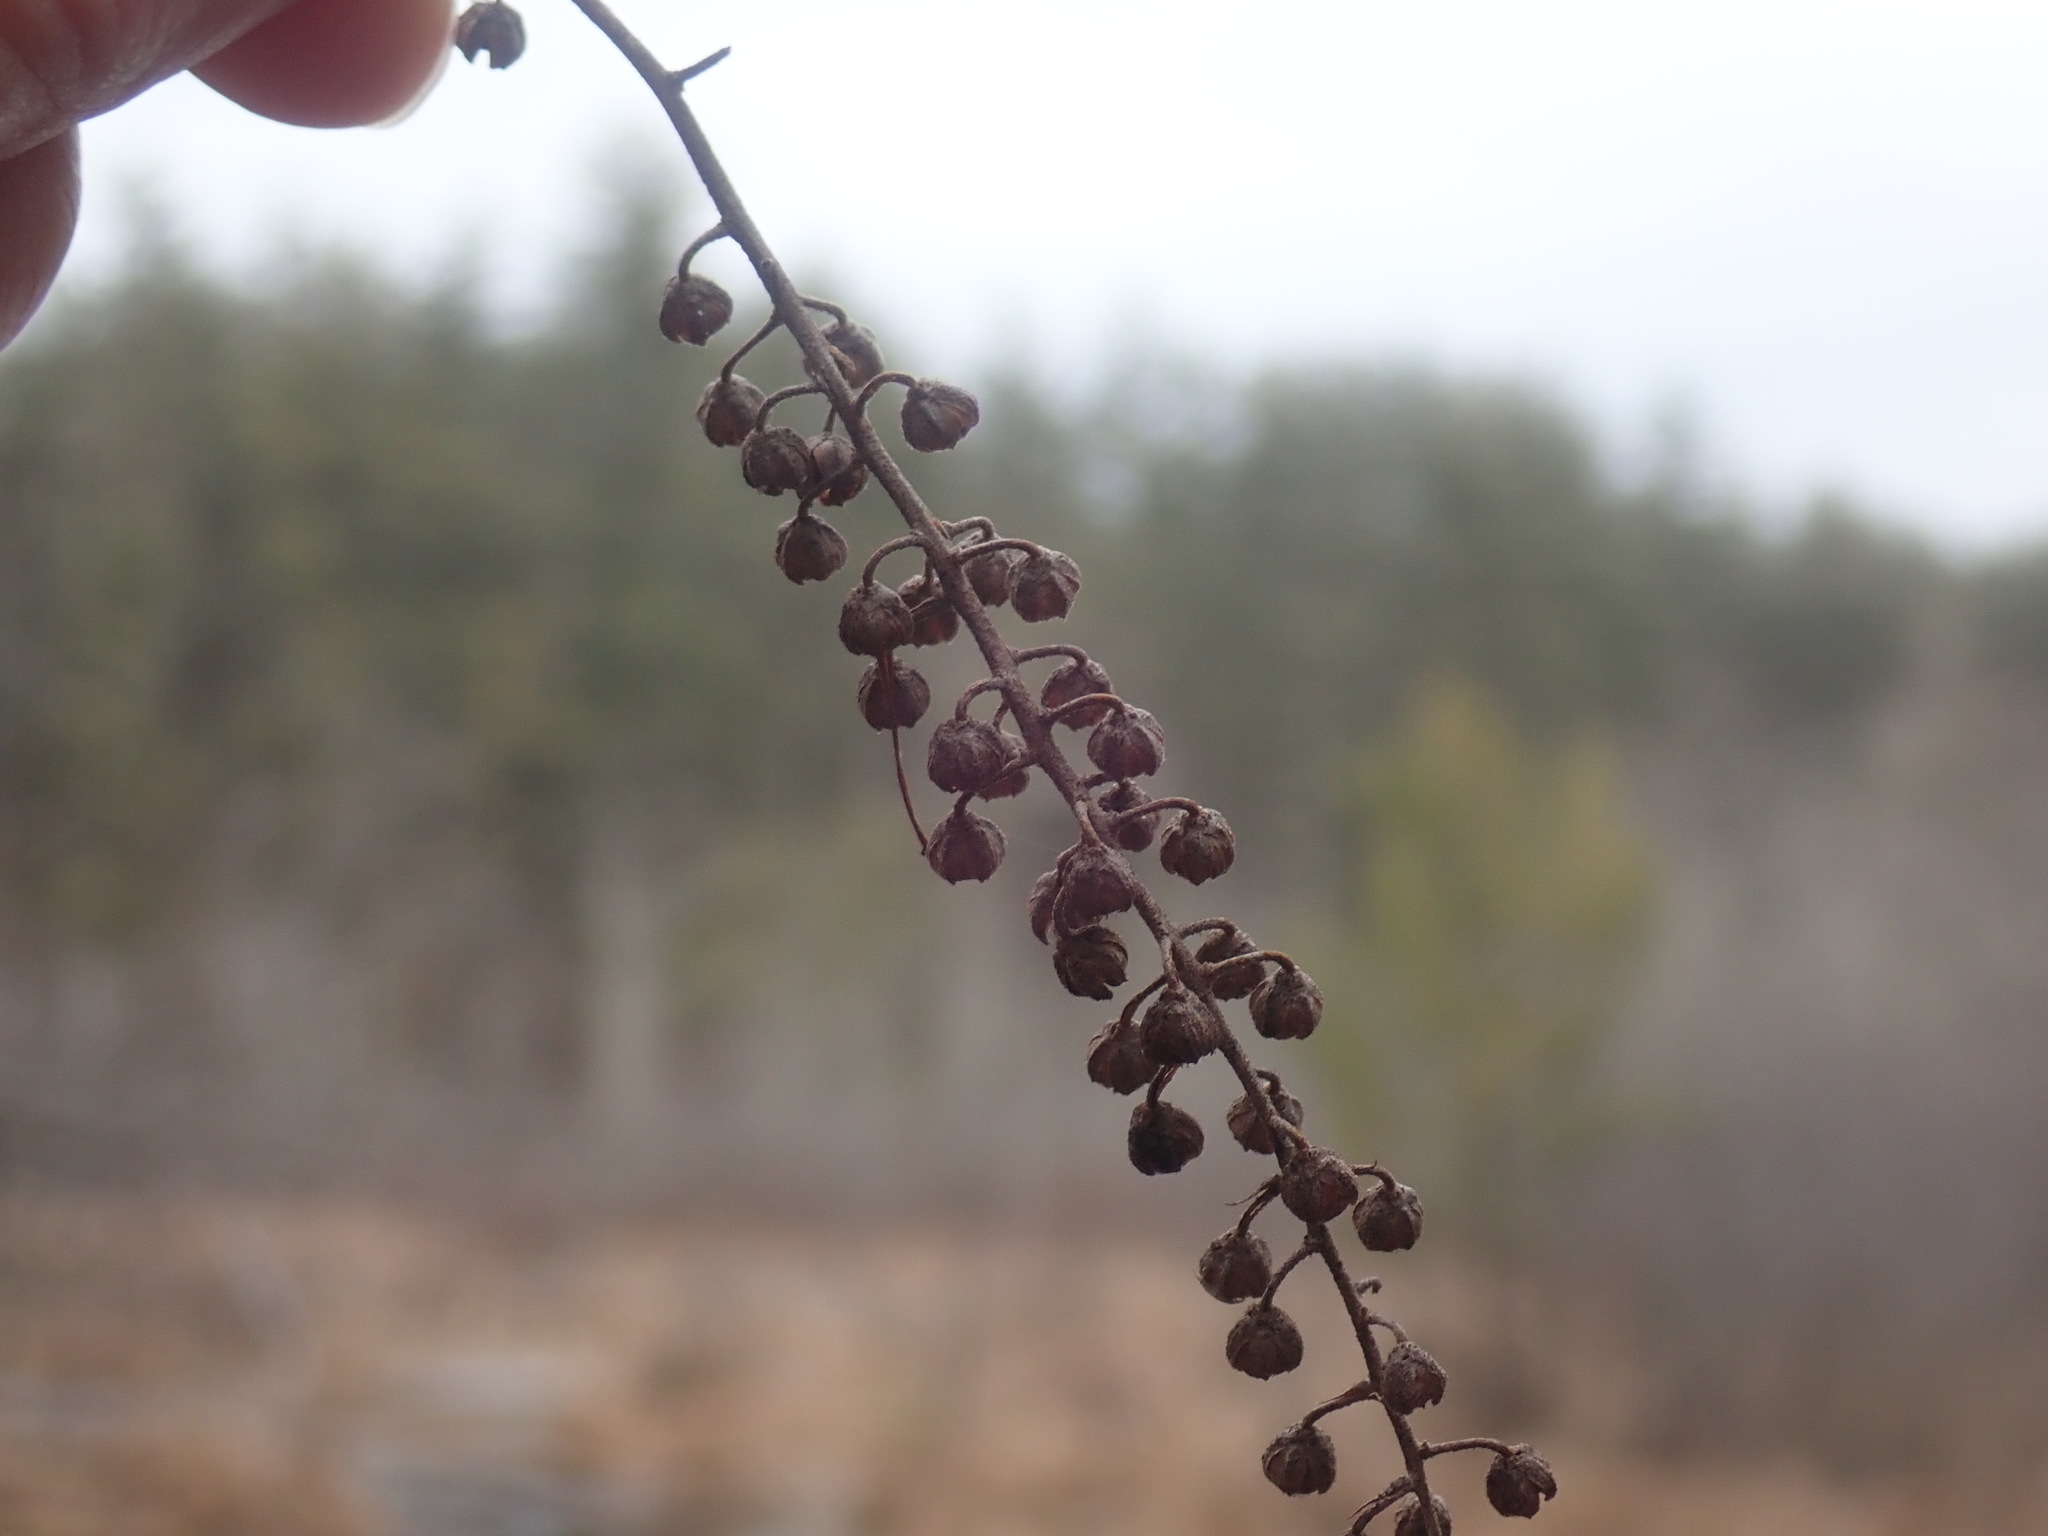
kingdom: Plantae
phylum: Tracheophyta
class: Magnoliopsida
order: Ericales
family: Clethraceae
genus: Clethra
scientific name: Clethra alnifolia
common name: Sweet pepperbush
